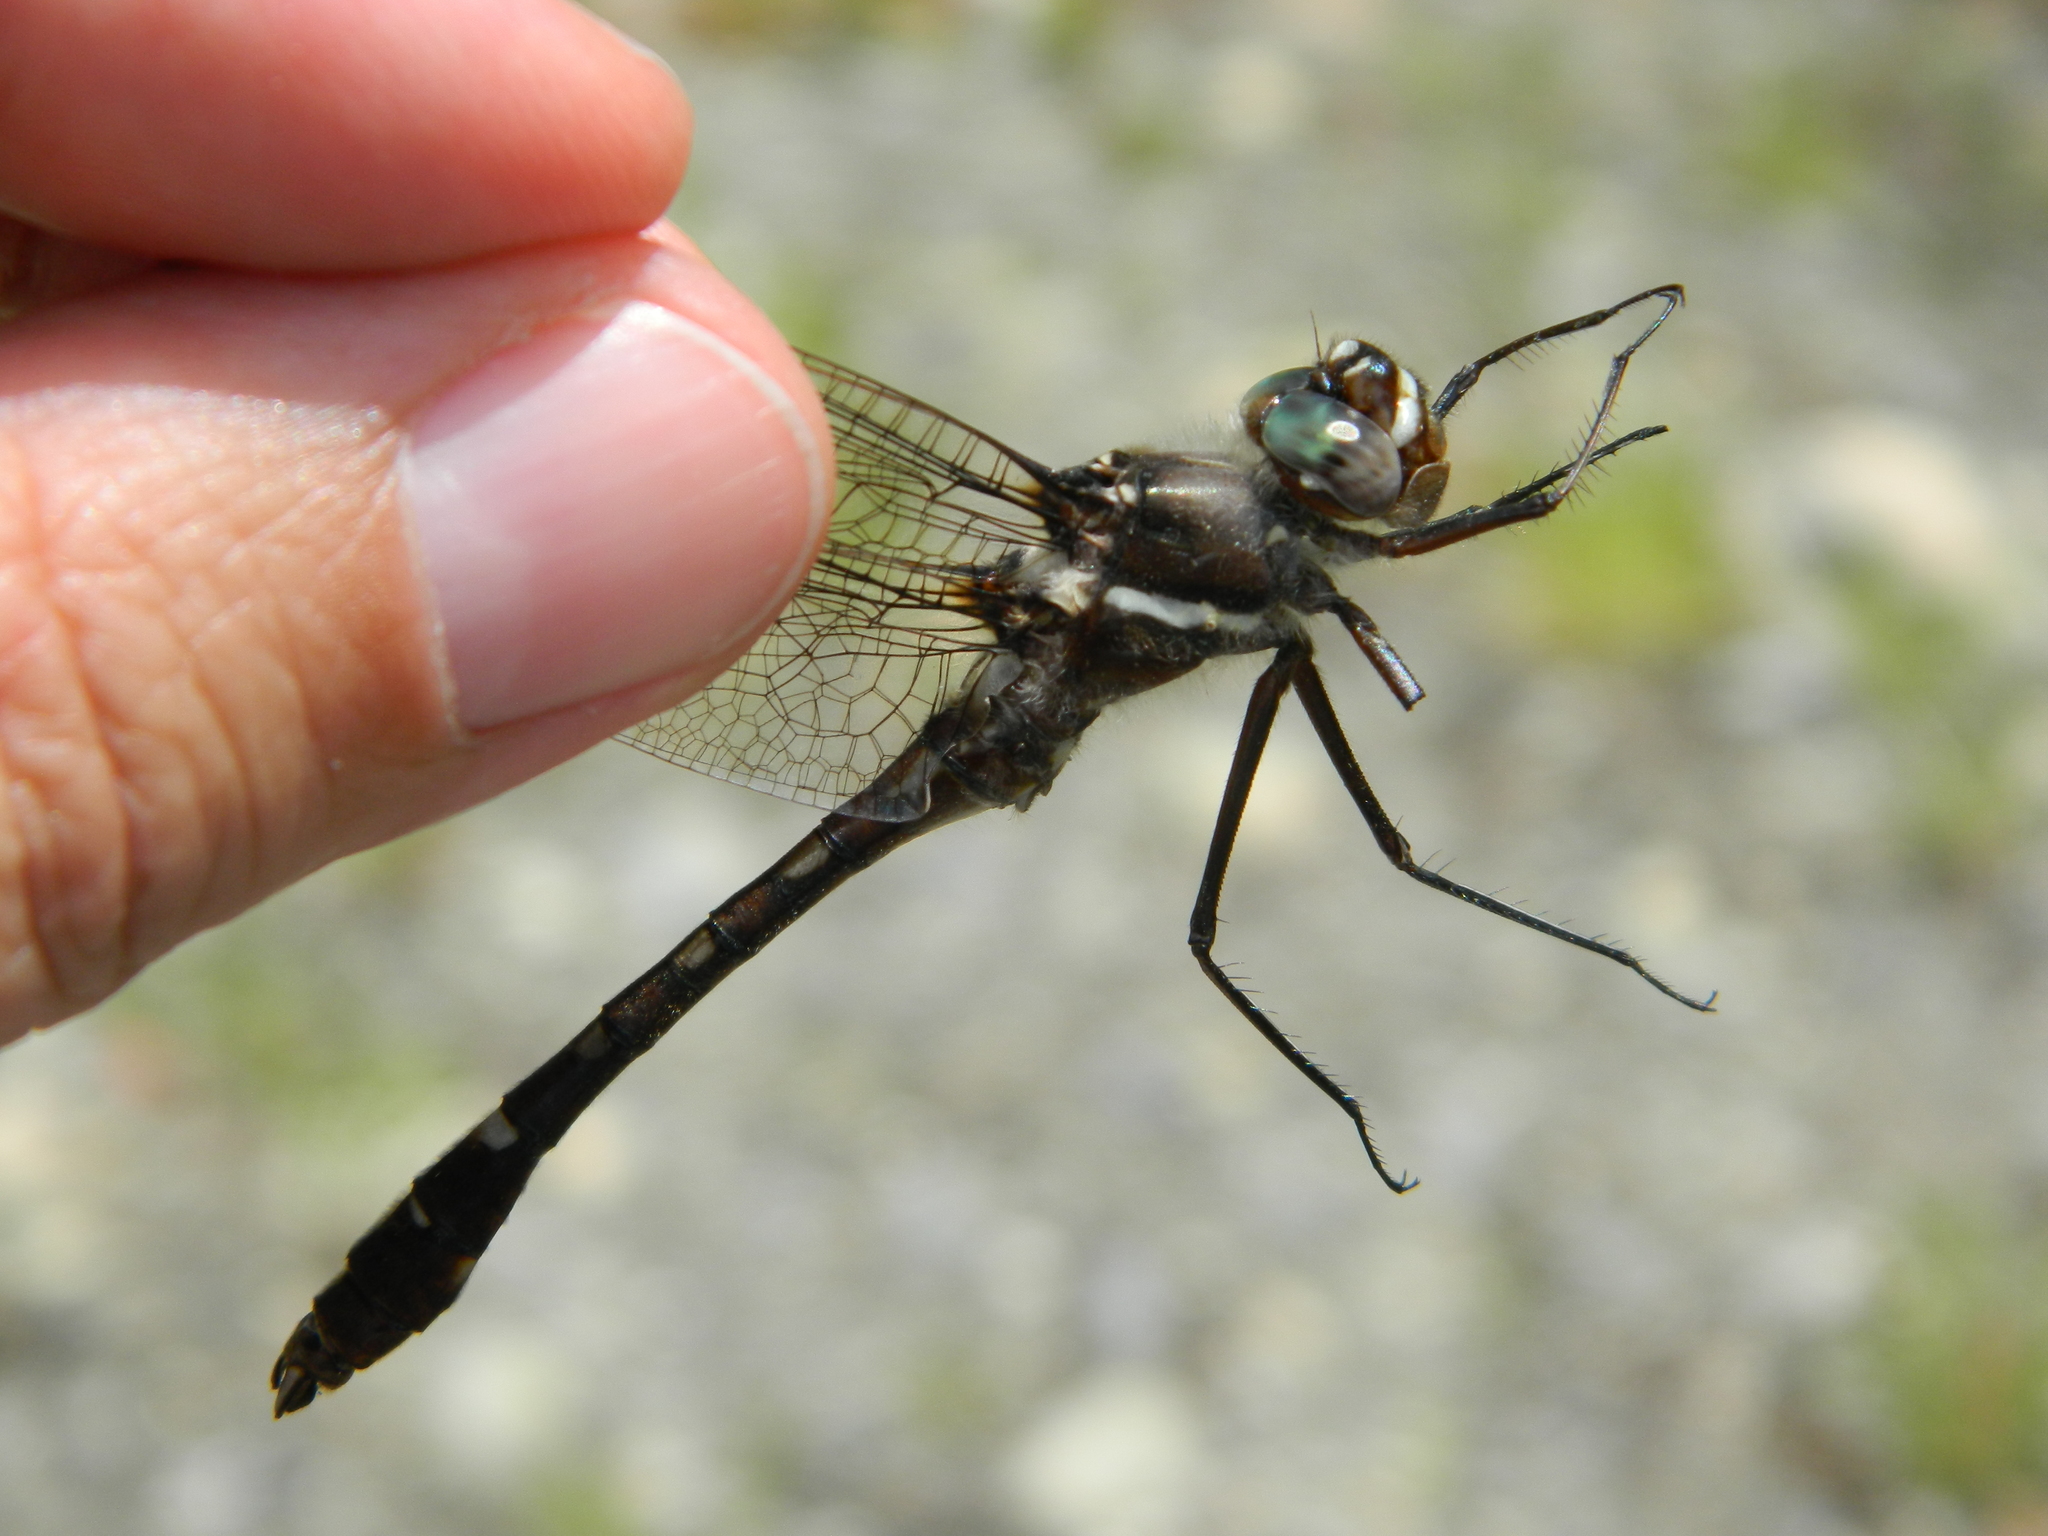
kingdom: Animalia
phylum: Arthropoda
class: Insecta
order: Odonata
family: Macromiidae
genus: Didymops
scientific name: Didymops transversa
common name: Stream cruiser
